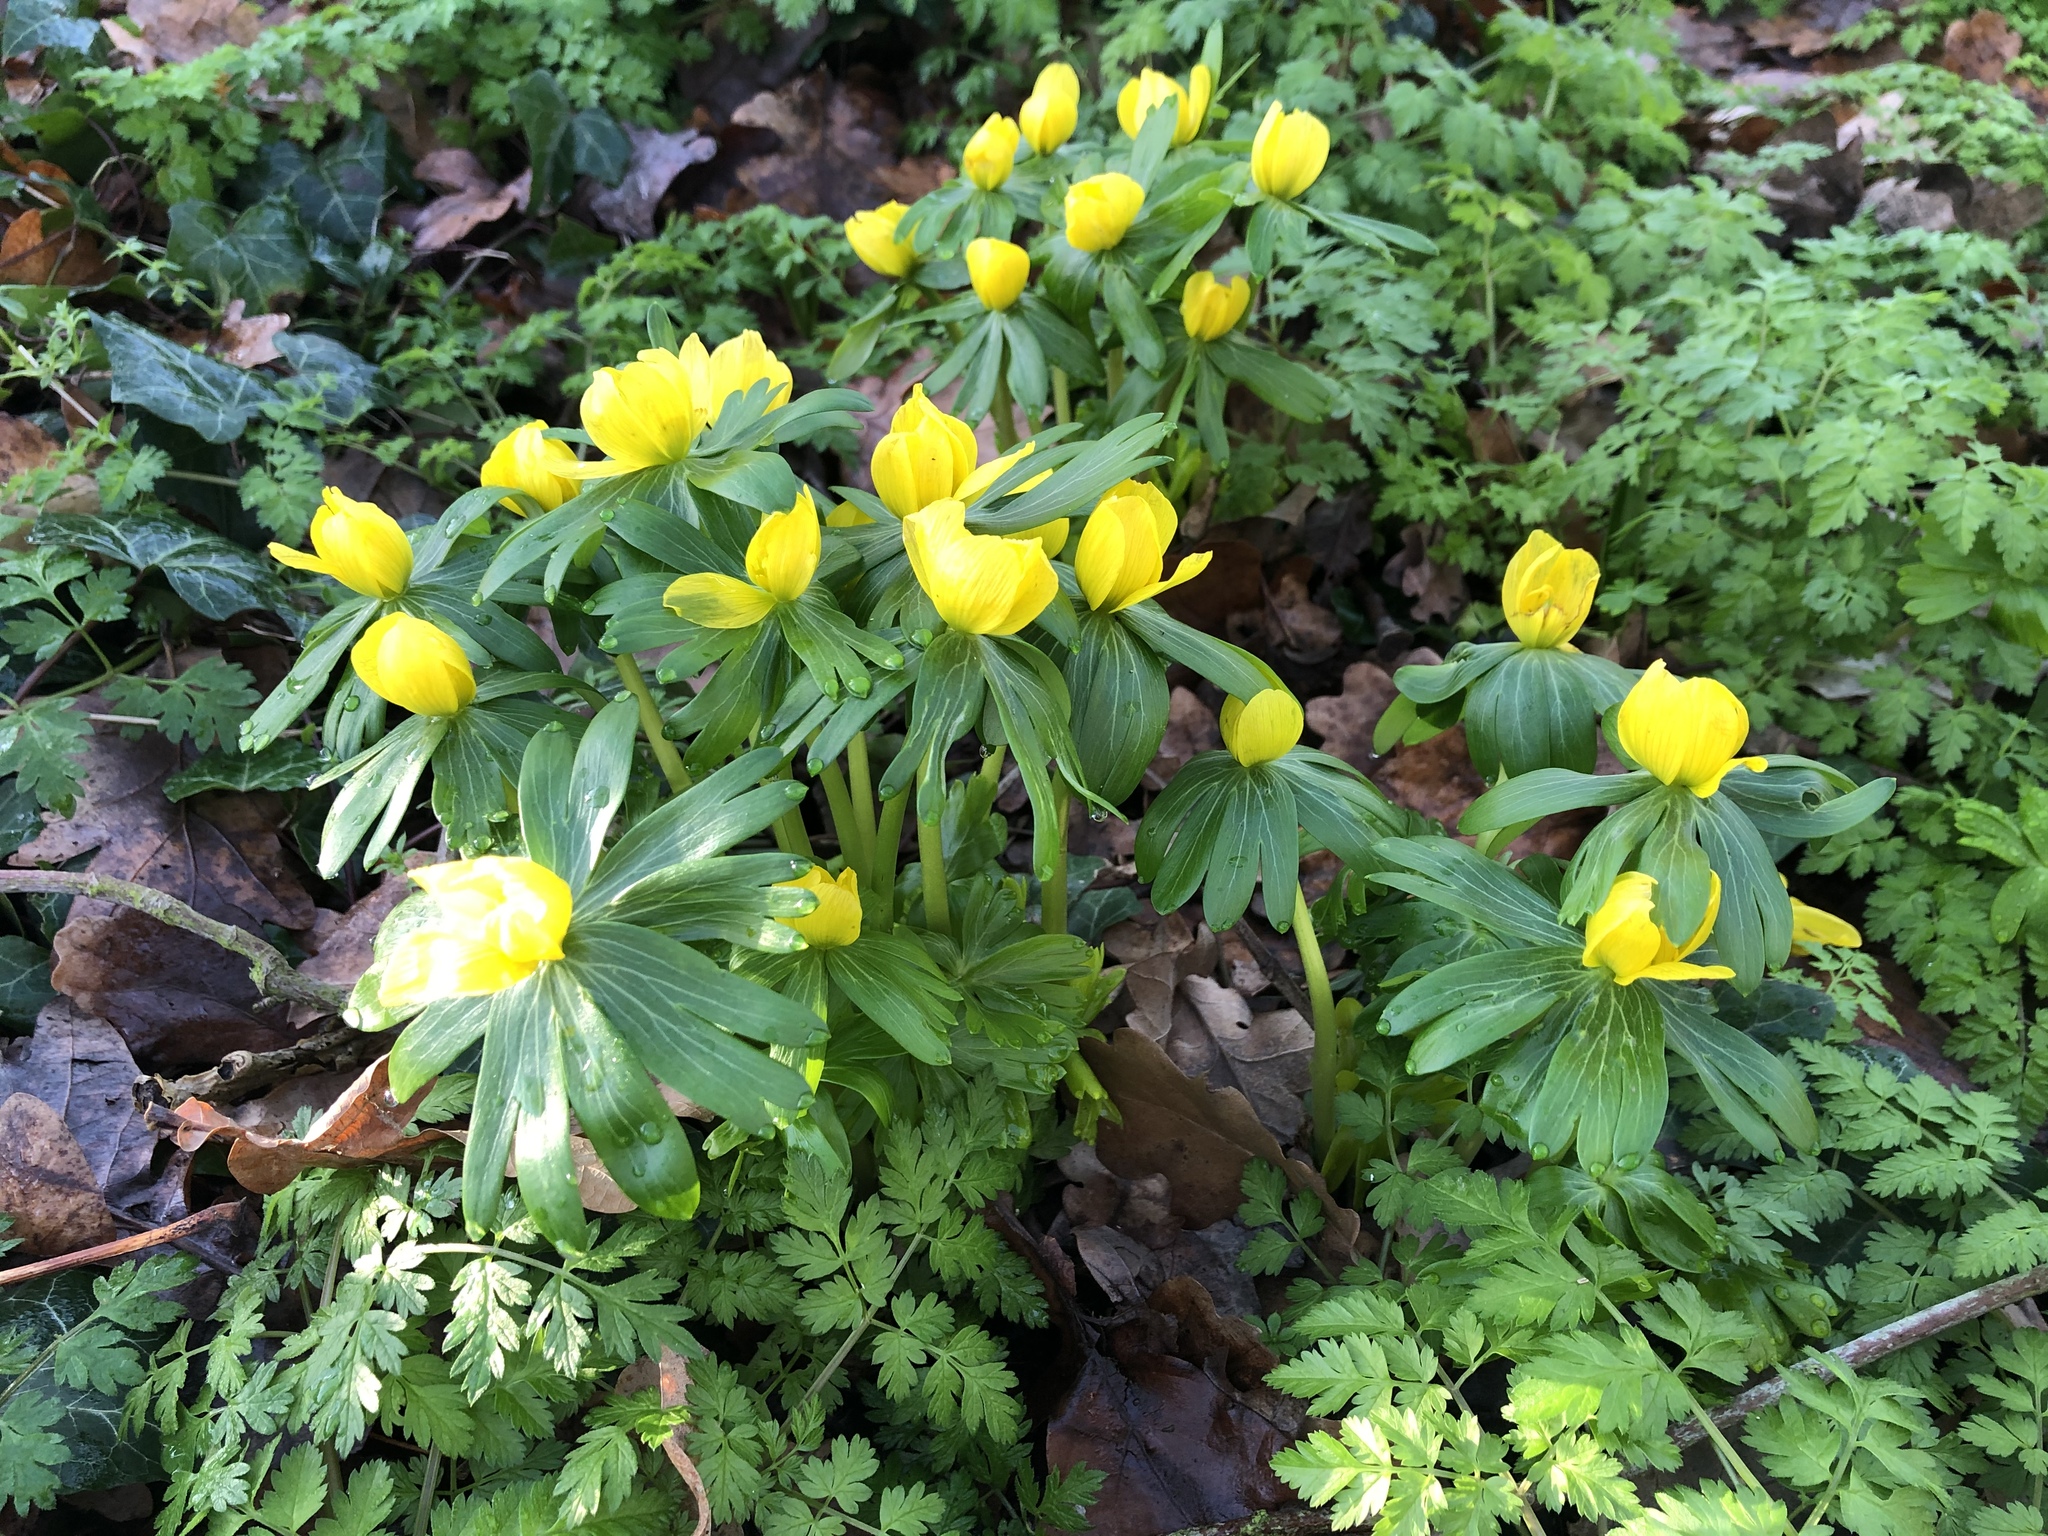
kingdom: Plantae
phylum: Tracheophyta
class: Magnoliopsida
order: Ranunculales
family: Ranunculaceae
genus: Eranthis
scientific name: Eranthis hyemalis
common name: Winter aconite
